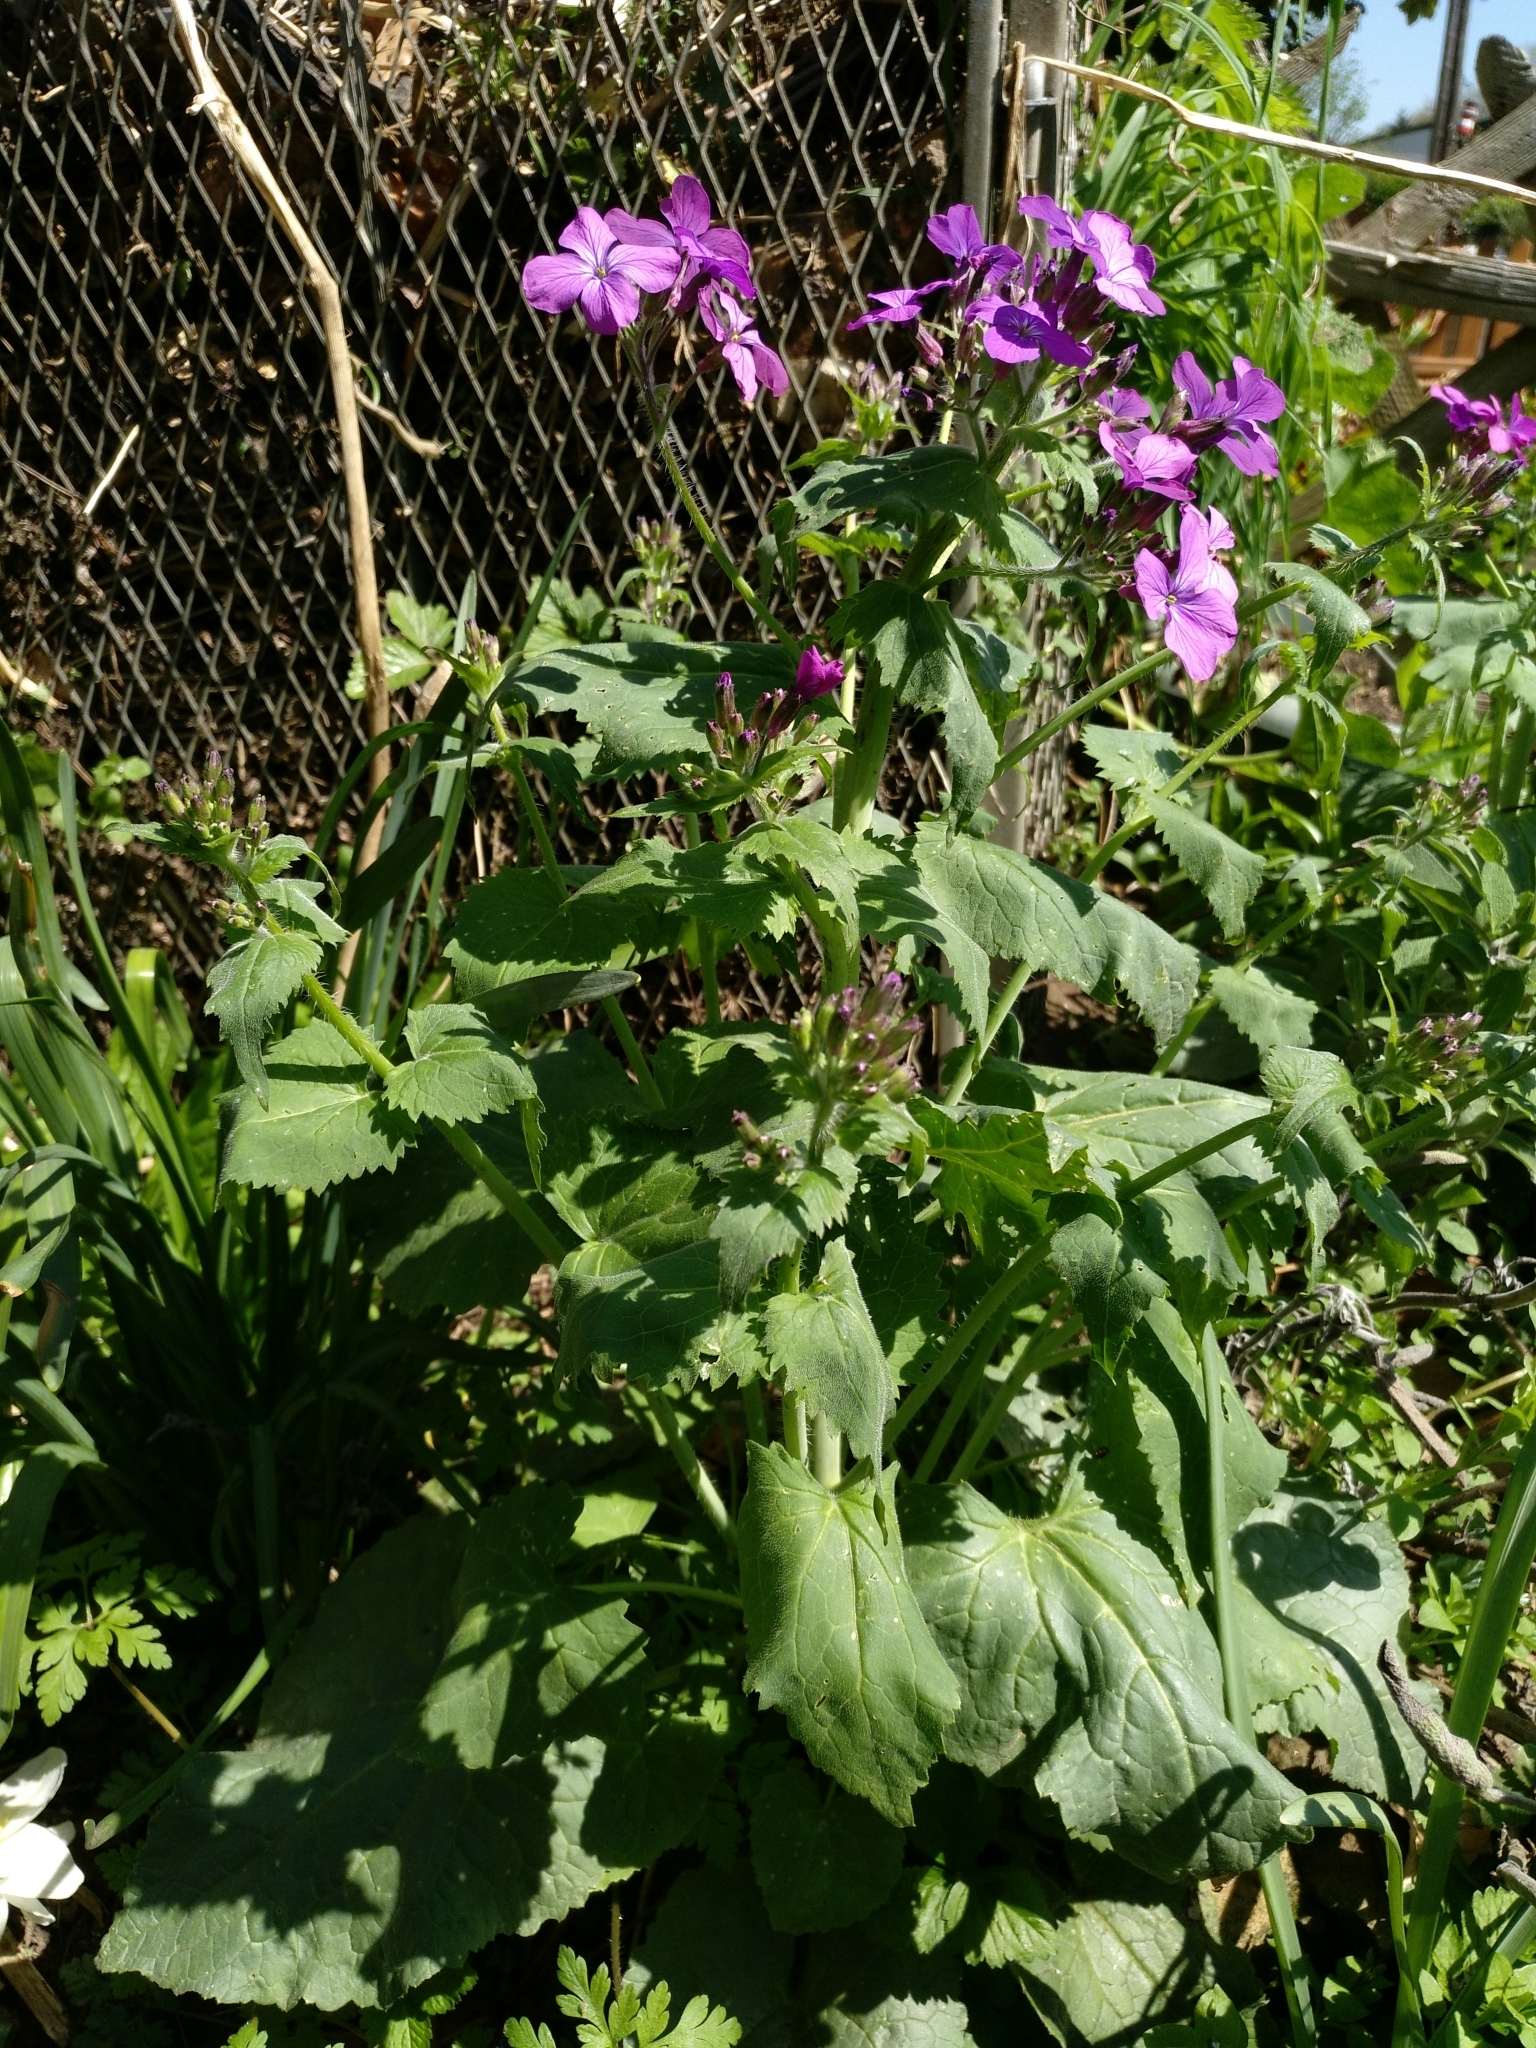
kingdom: Plantae
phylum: Tracheophyta
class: Magnoliopsida
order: Brassicales
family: Brassicaceae
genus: Lunaria
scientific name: Lunaria annua
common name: Honesty
